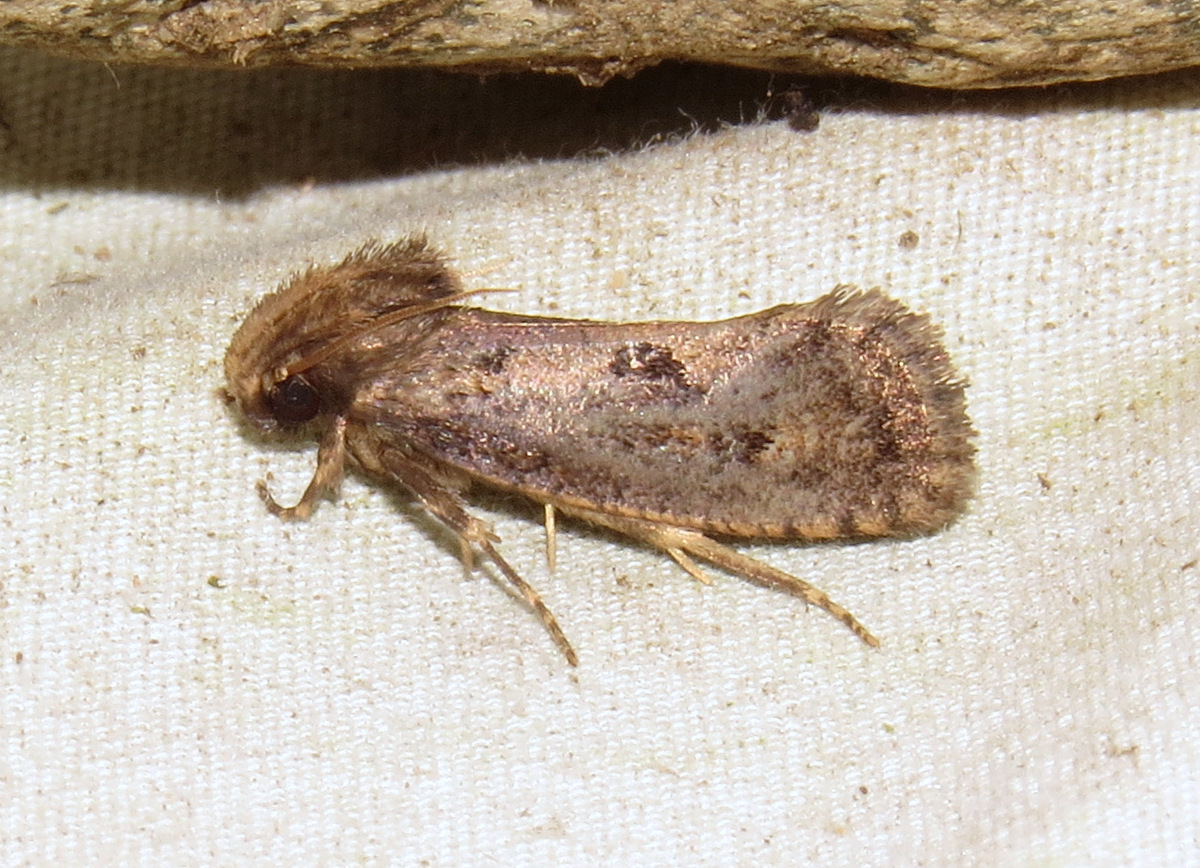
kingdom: Animalia
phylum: Arthropoda
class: Insecta
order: Lepidoptera
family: Tineidae
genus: Acrolophus
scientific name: Acrolophus popeanella
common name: Clemens' grass tubeworm moth
